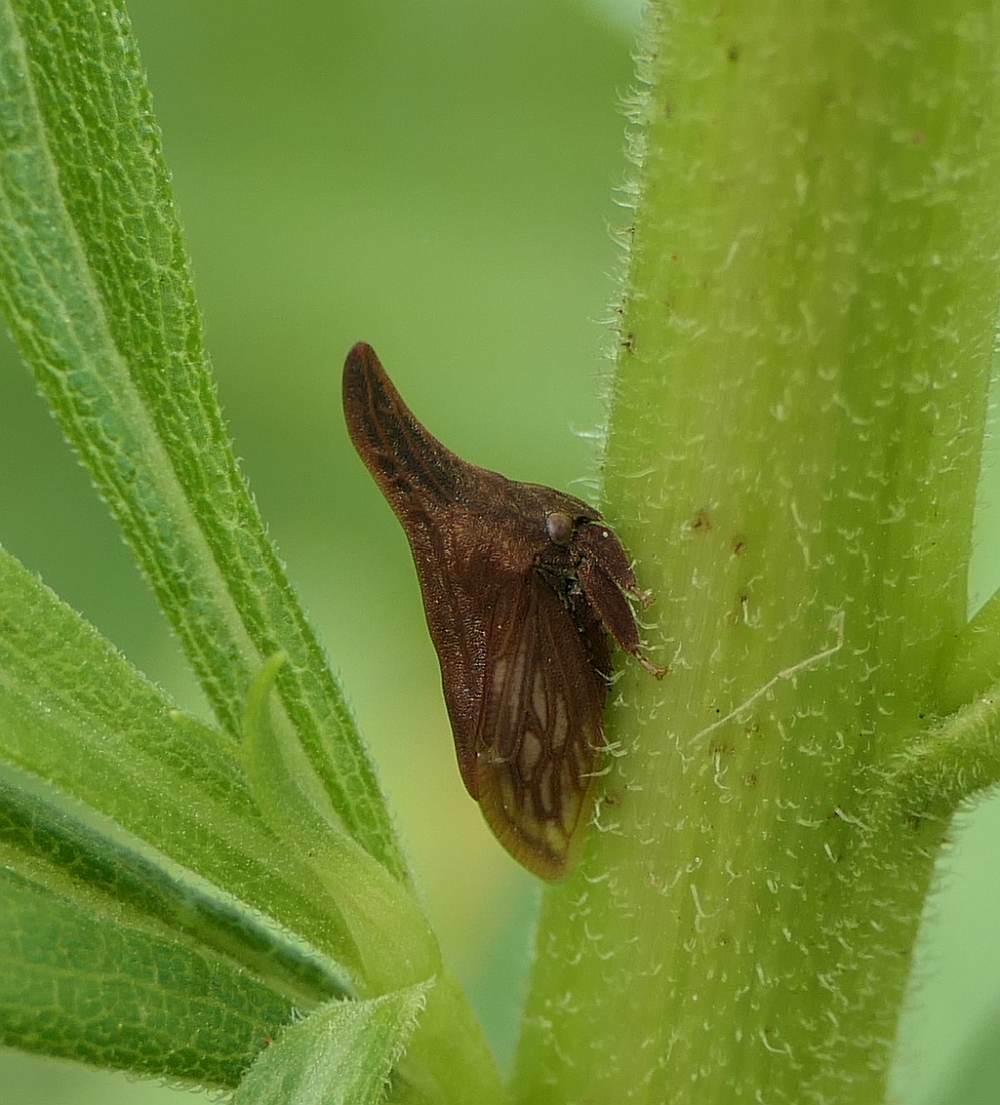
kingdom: Animalia
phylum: Arthropoda
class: Insecta
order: Hemiptera
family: Membracidae
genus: Enchenopa
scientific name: Enchenopa latipes
